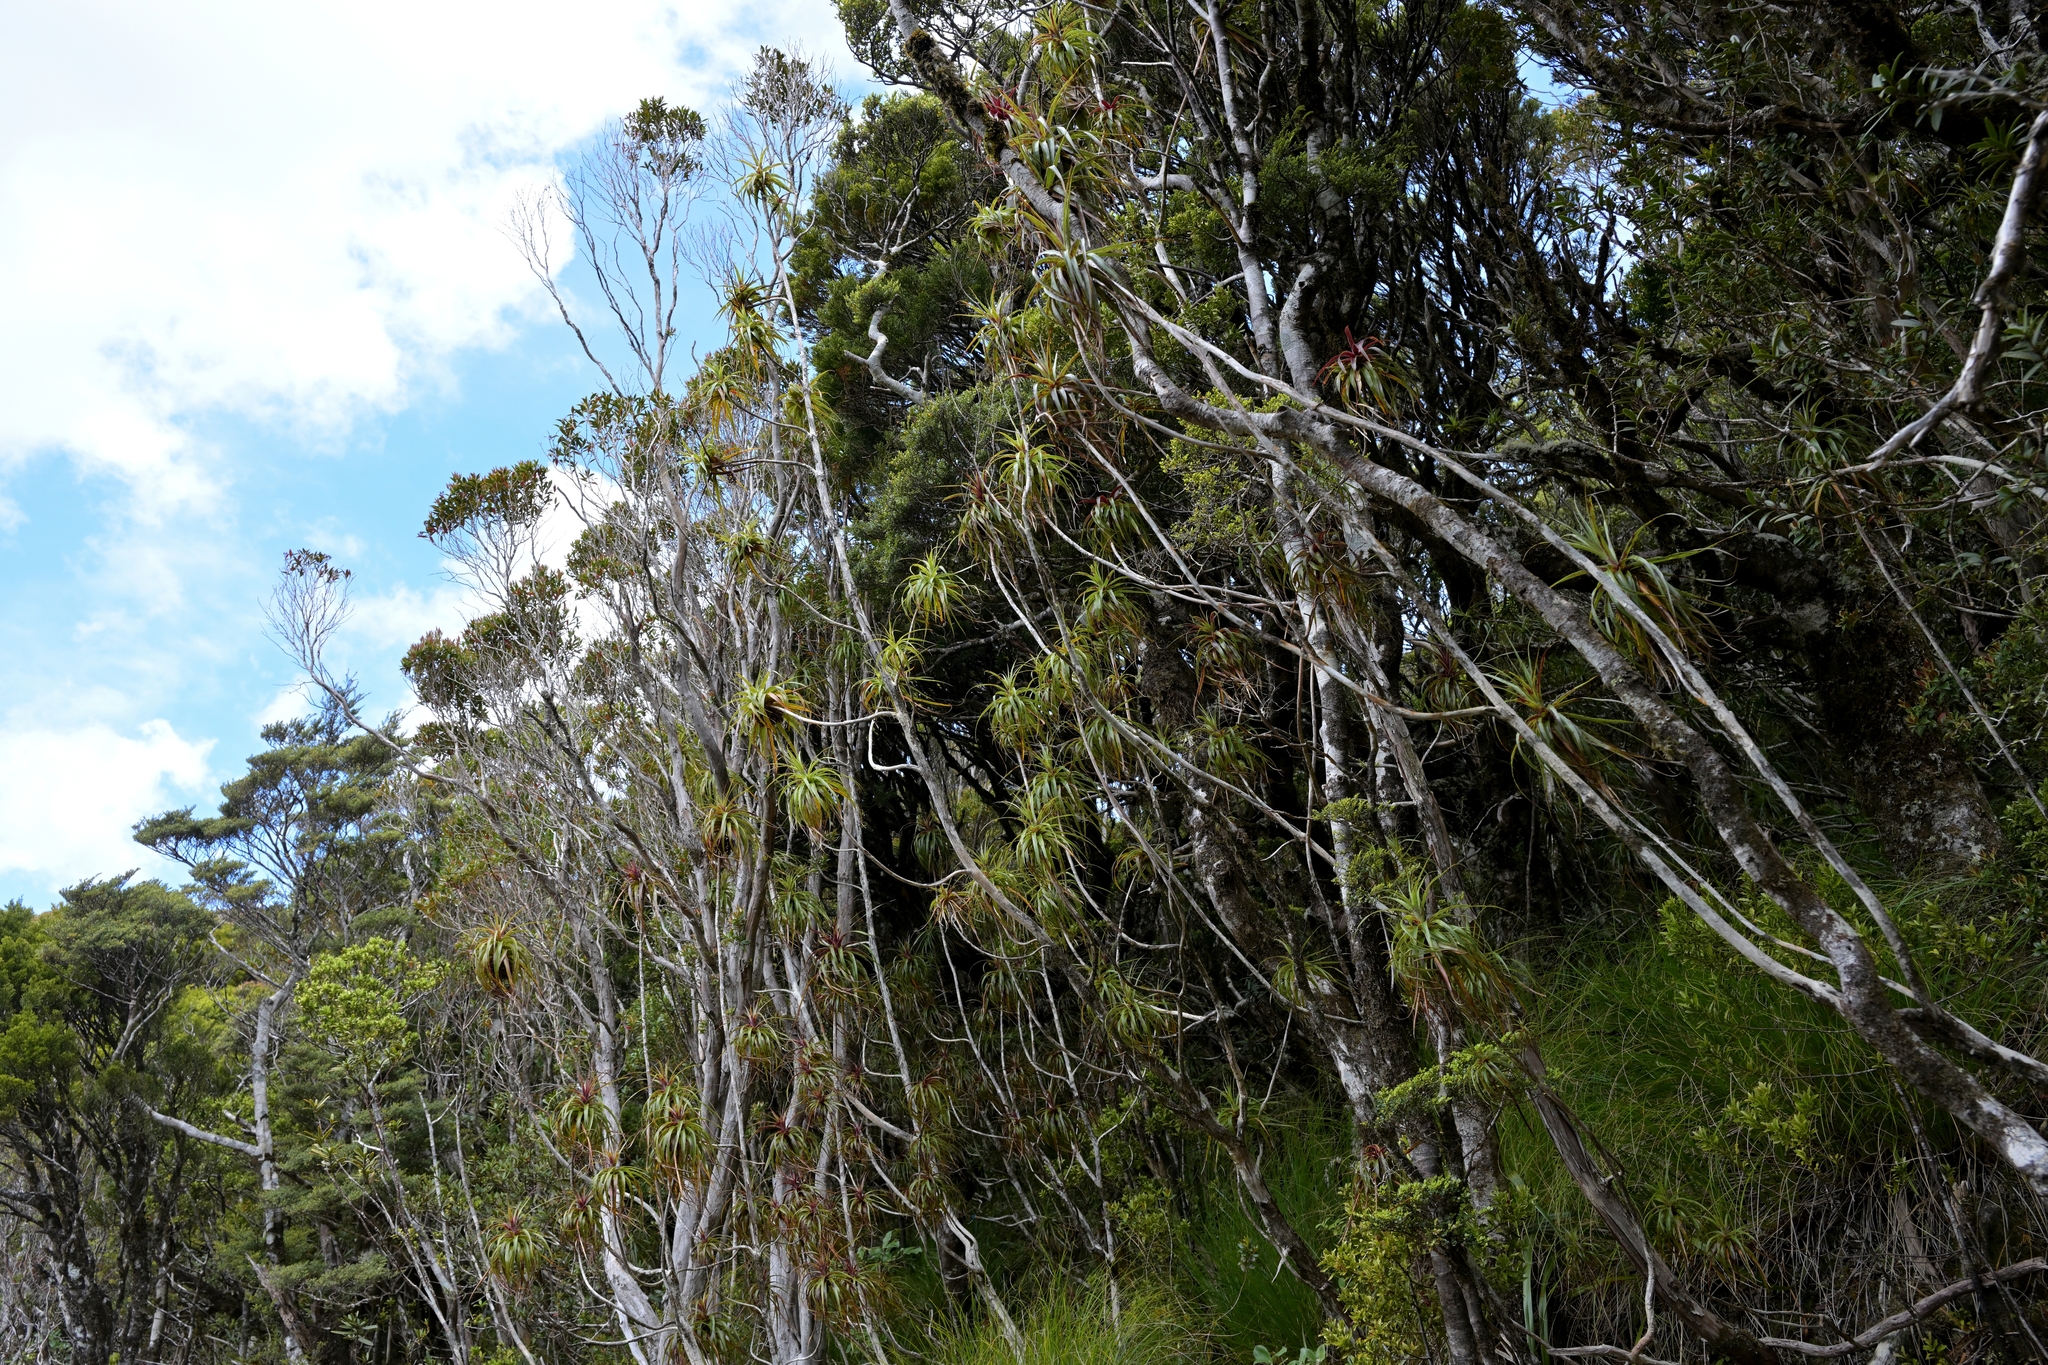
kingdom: Plantae
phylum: Tracheophyta
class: Magnoliopsida
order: Ericales
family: Ericaceae
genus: Dracophyllum
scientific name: Dracophyllum townsonii
